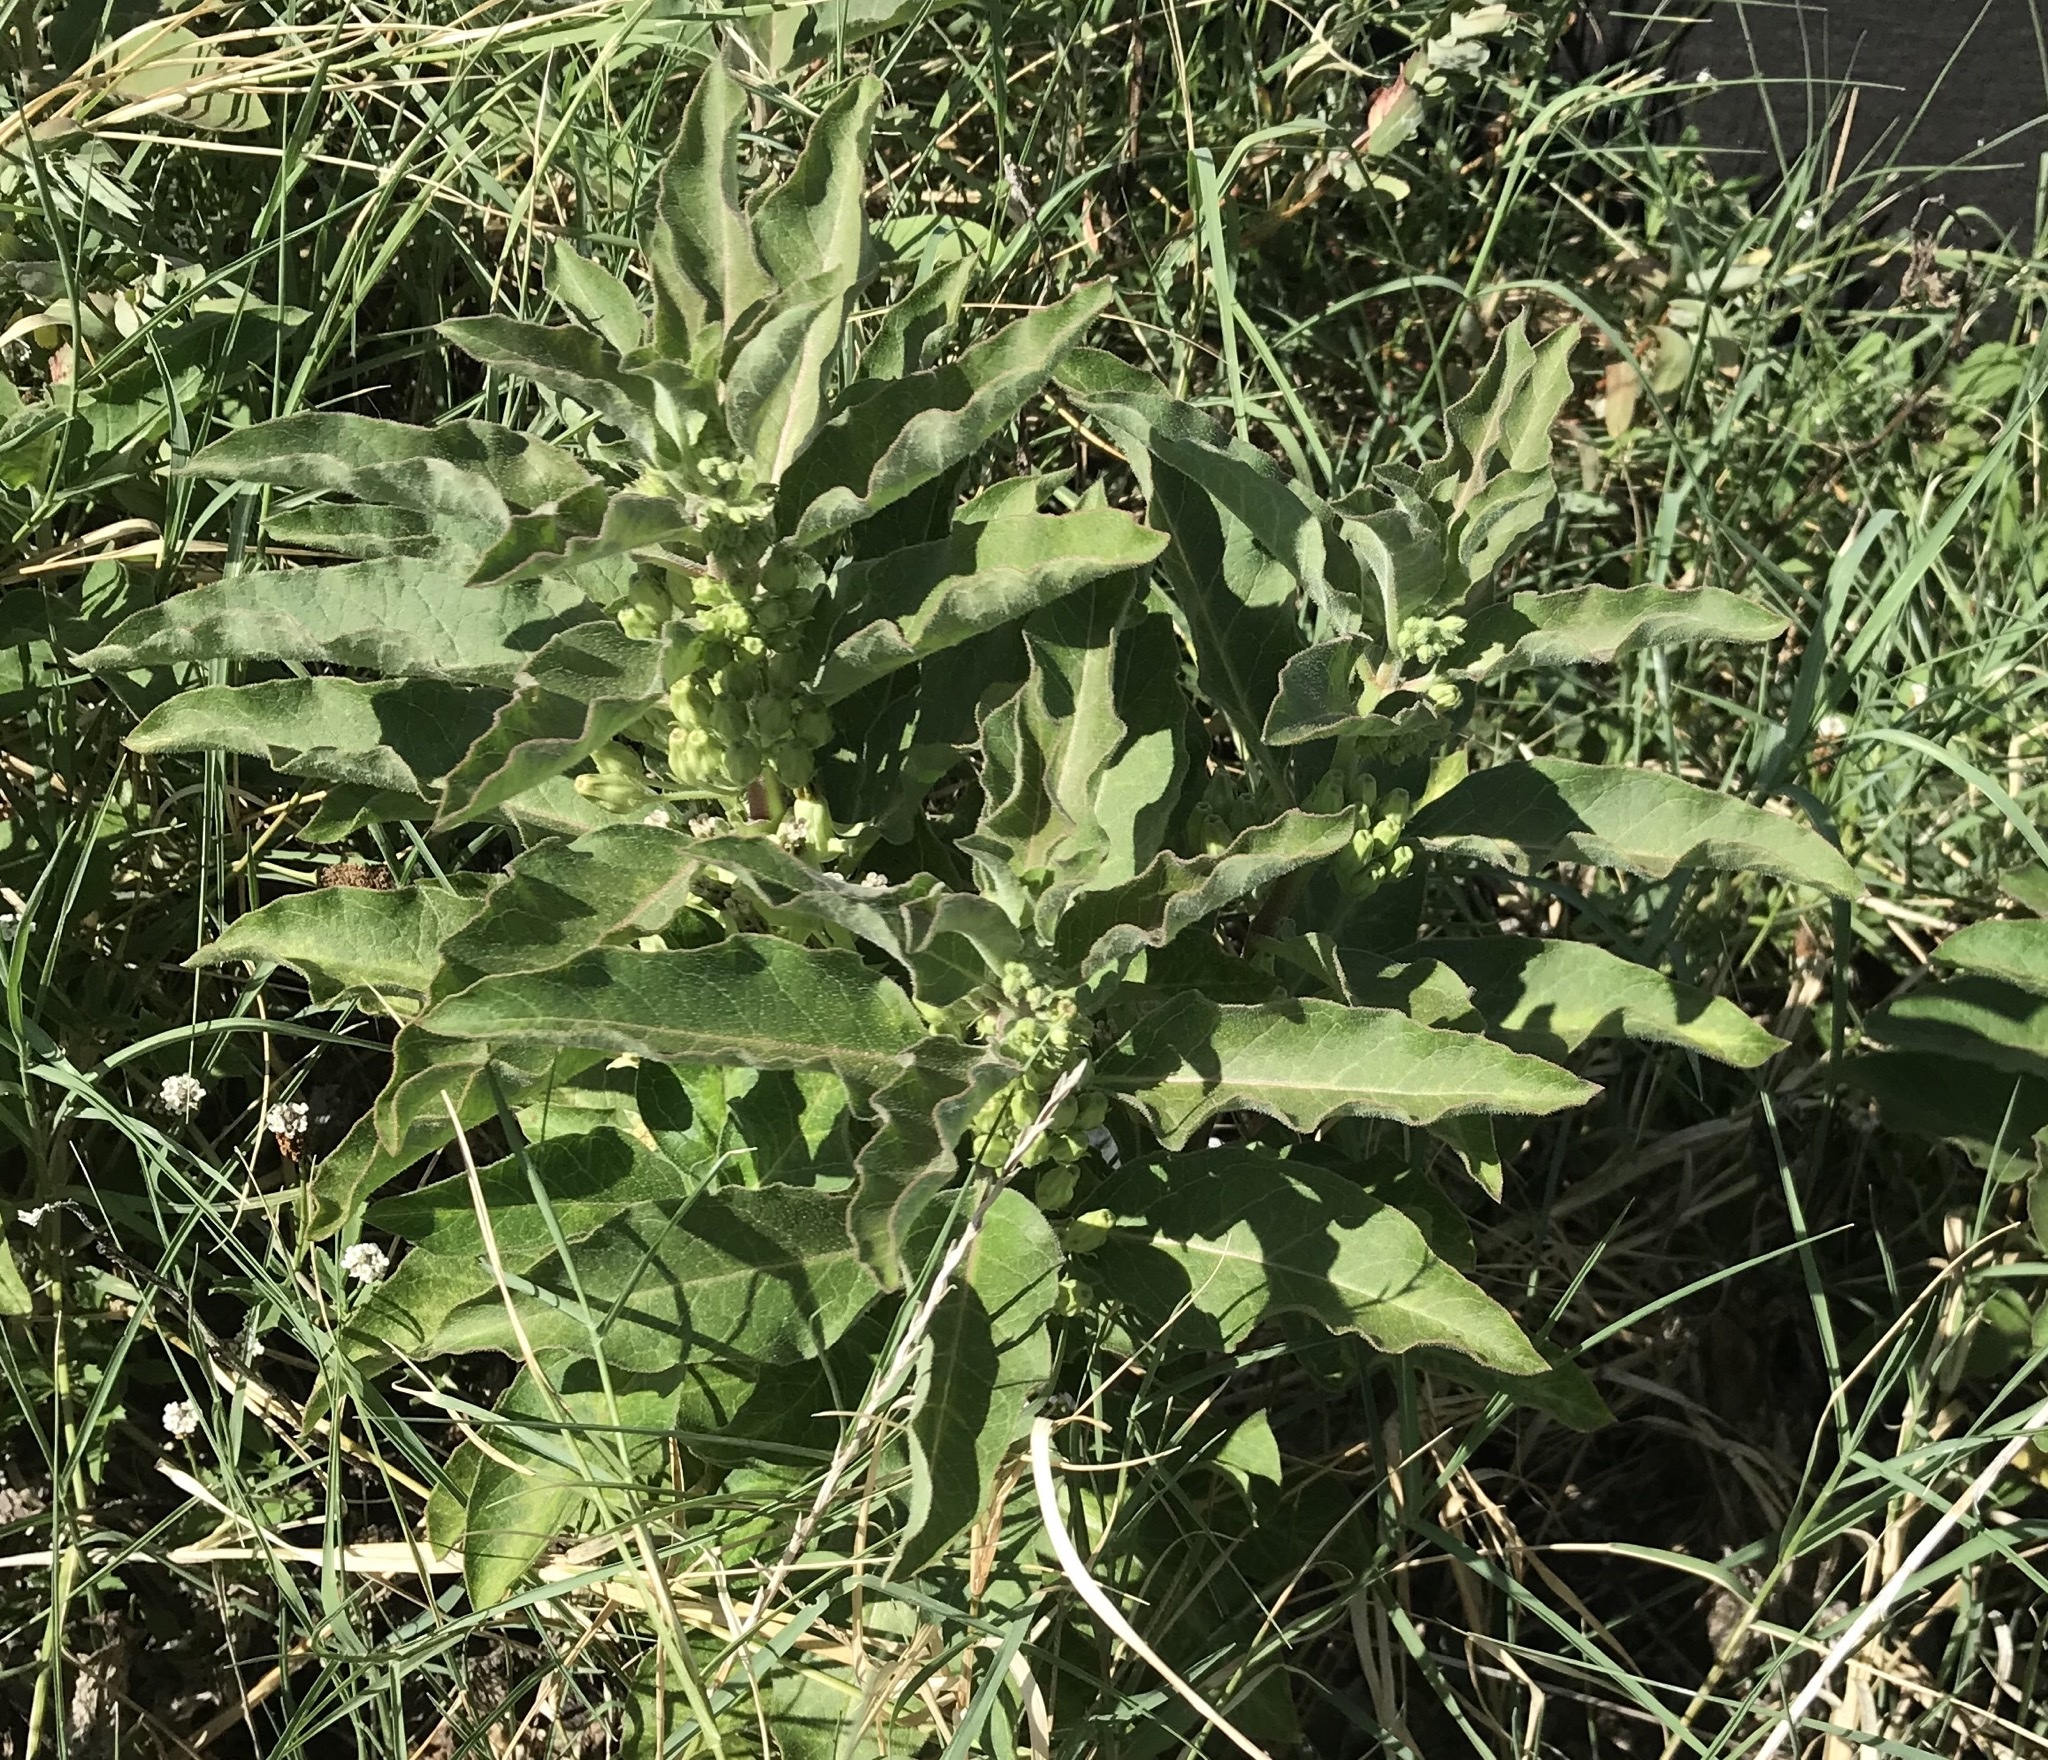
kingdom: Plantae
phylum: Tracheophyta
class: Magnoliopsida
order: Gentianales
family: Apocynaceae
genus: Asclepias
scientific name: Asclepias oenotheroides
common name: Zizotes milkweed
